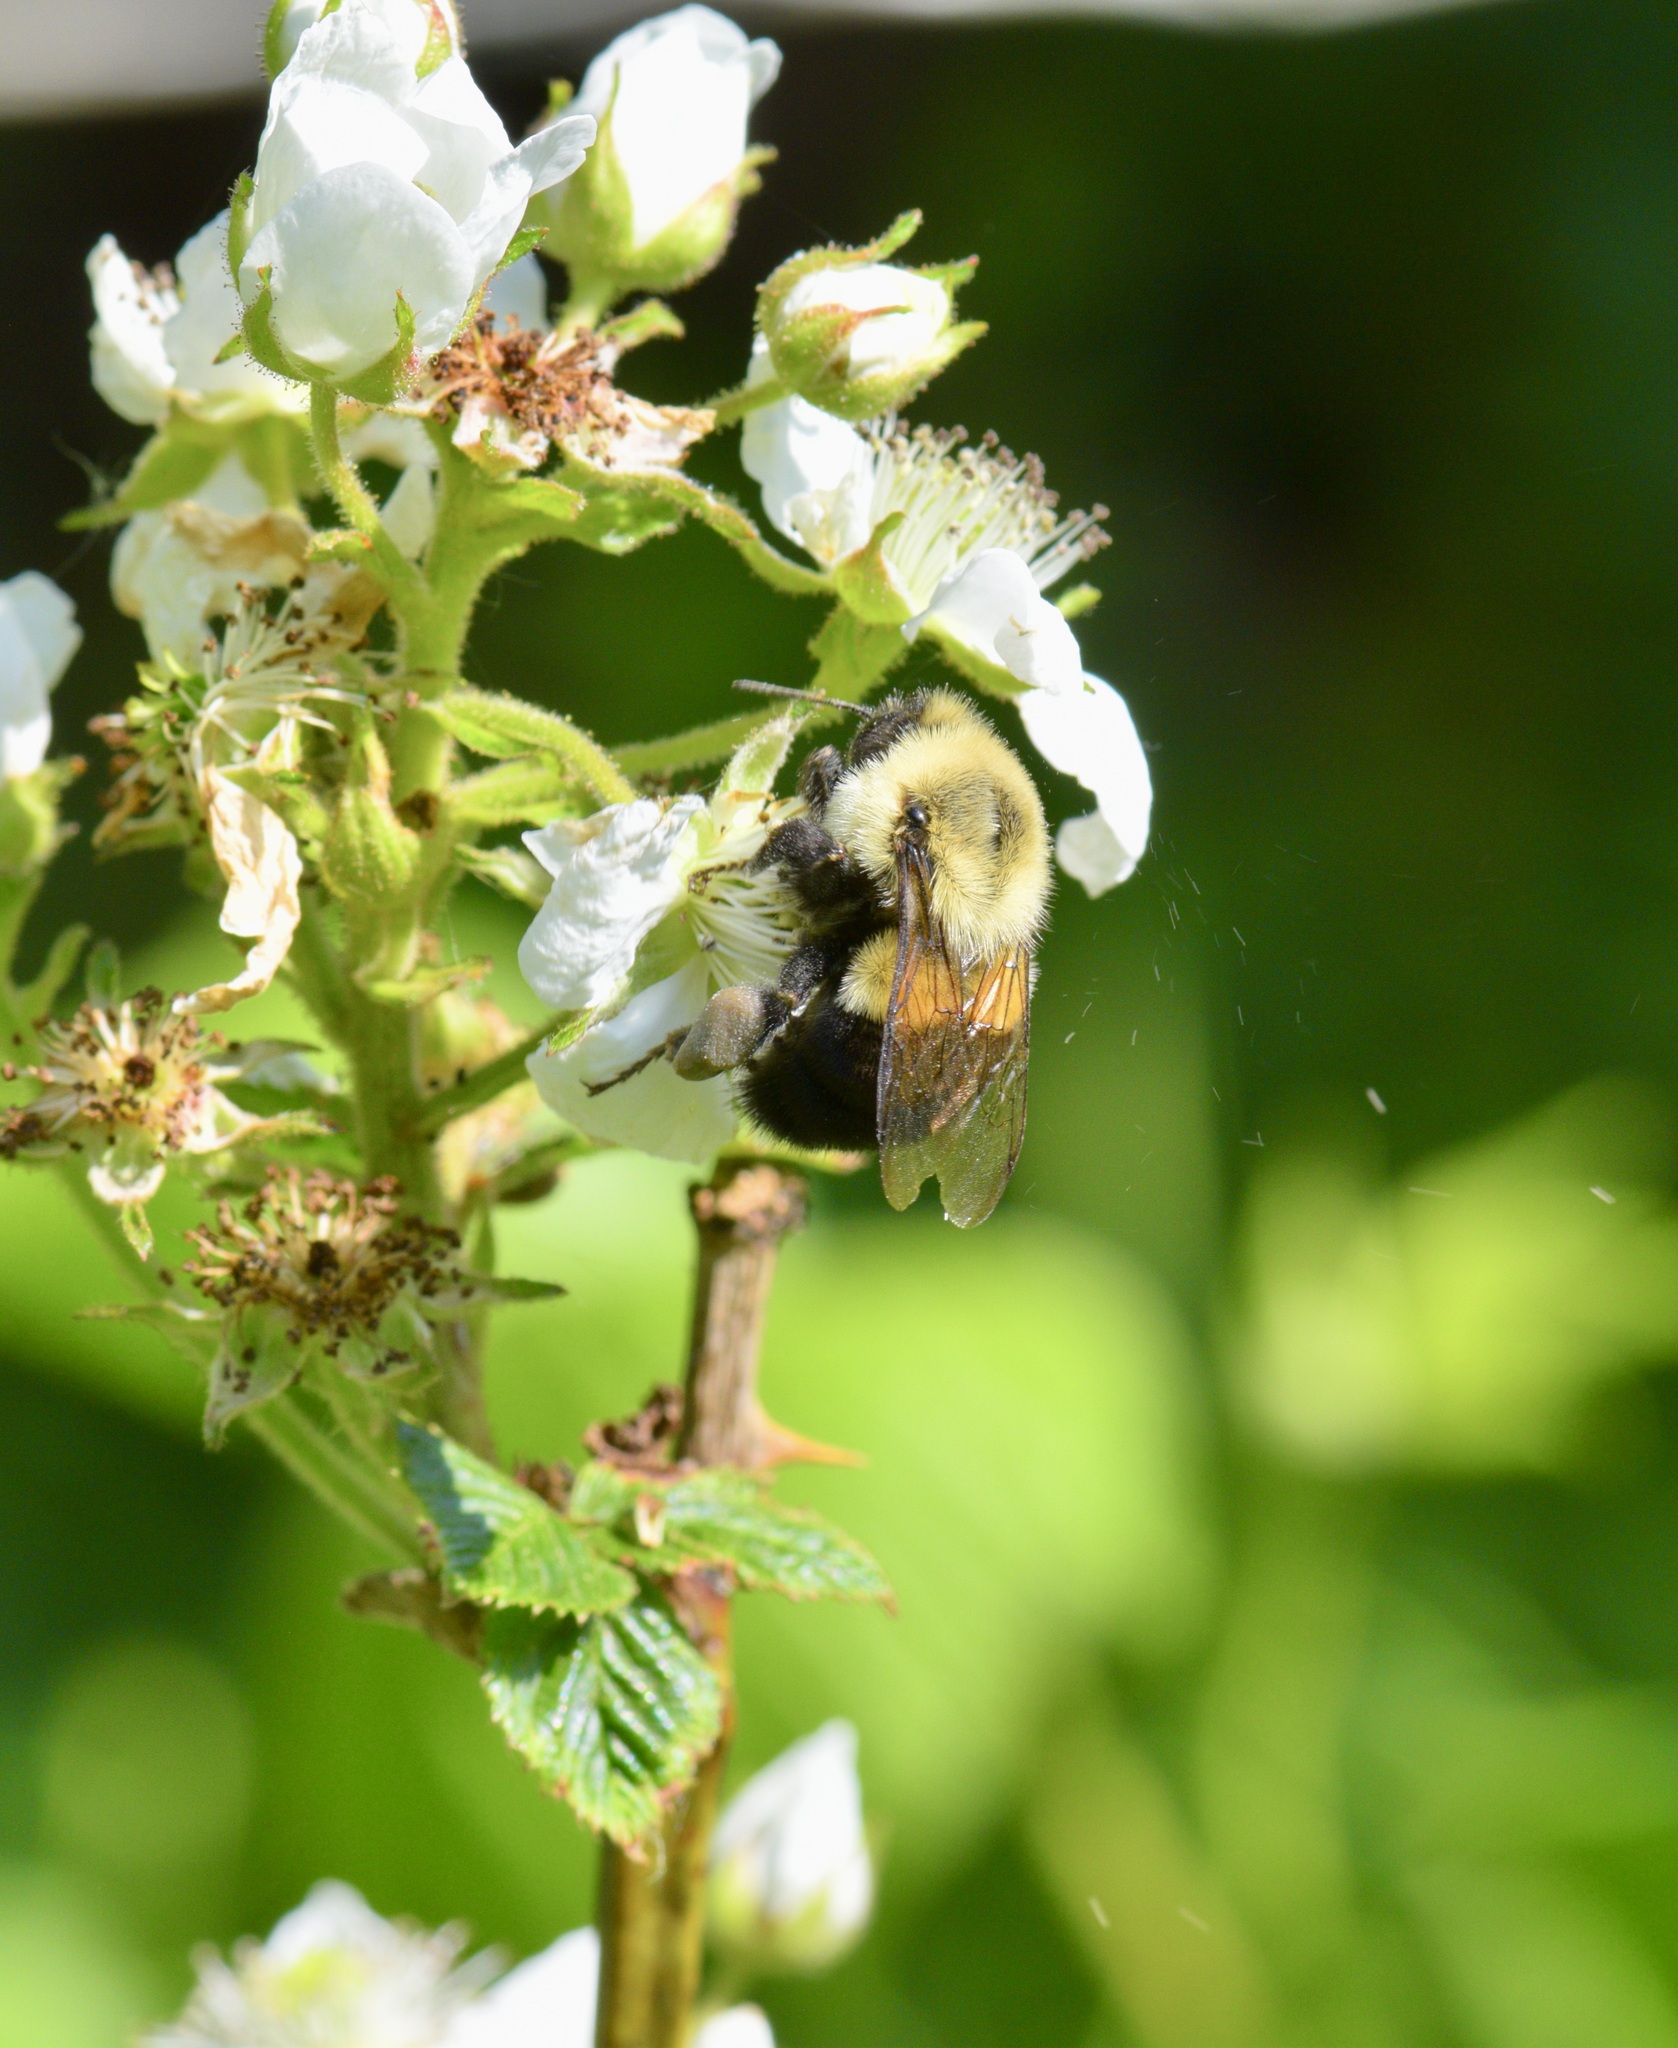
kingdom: Animalia
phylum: Arthropoda
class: Insecta
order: Hymenoptera
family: Apidae
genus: Bombus
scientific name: Bombus impatiens
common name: Common eastern bumble bee
